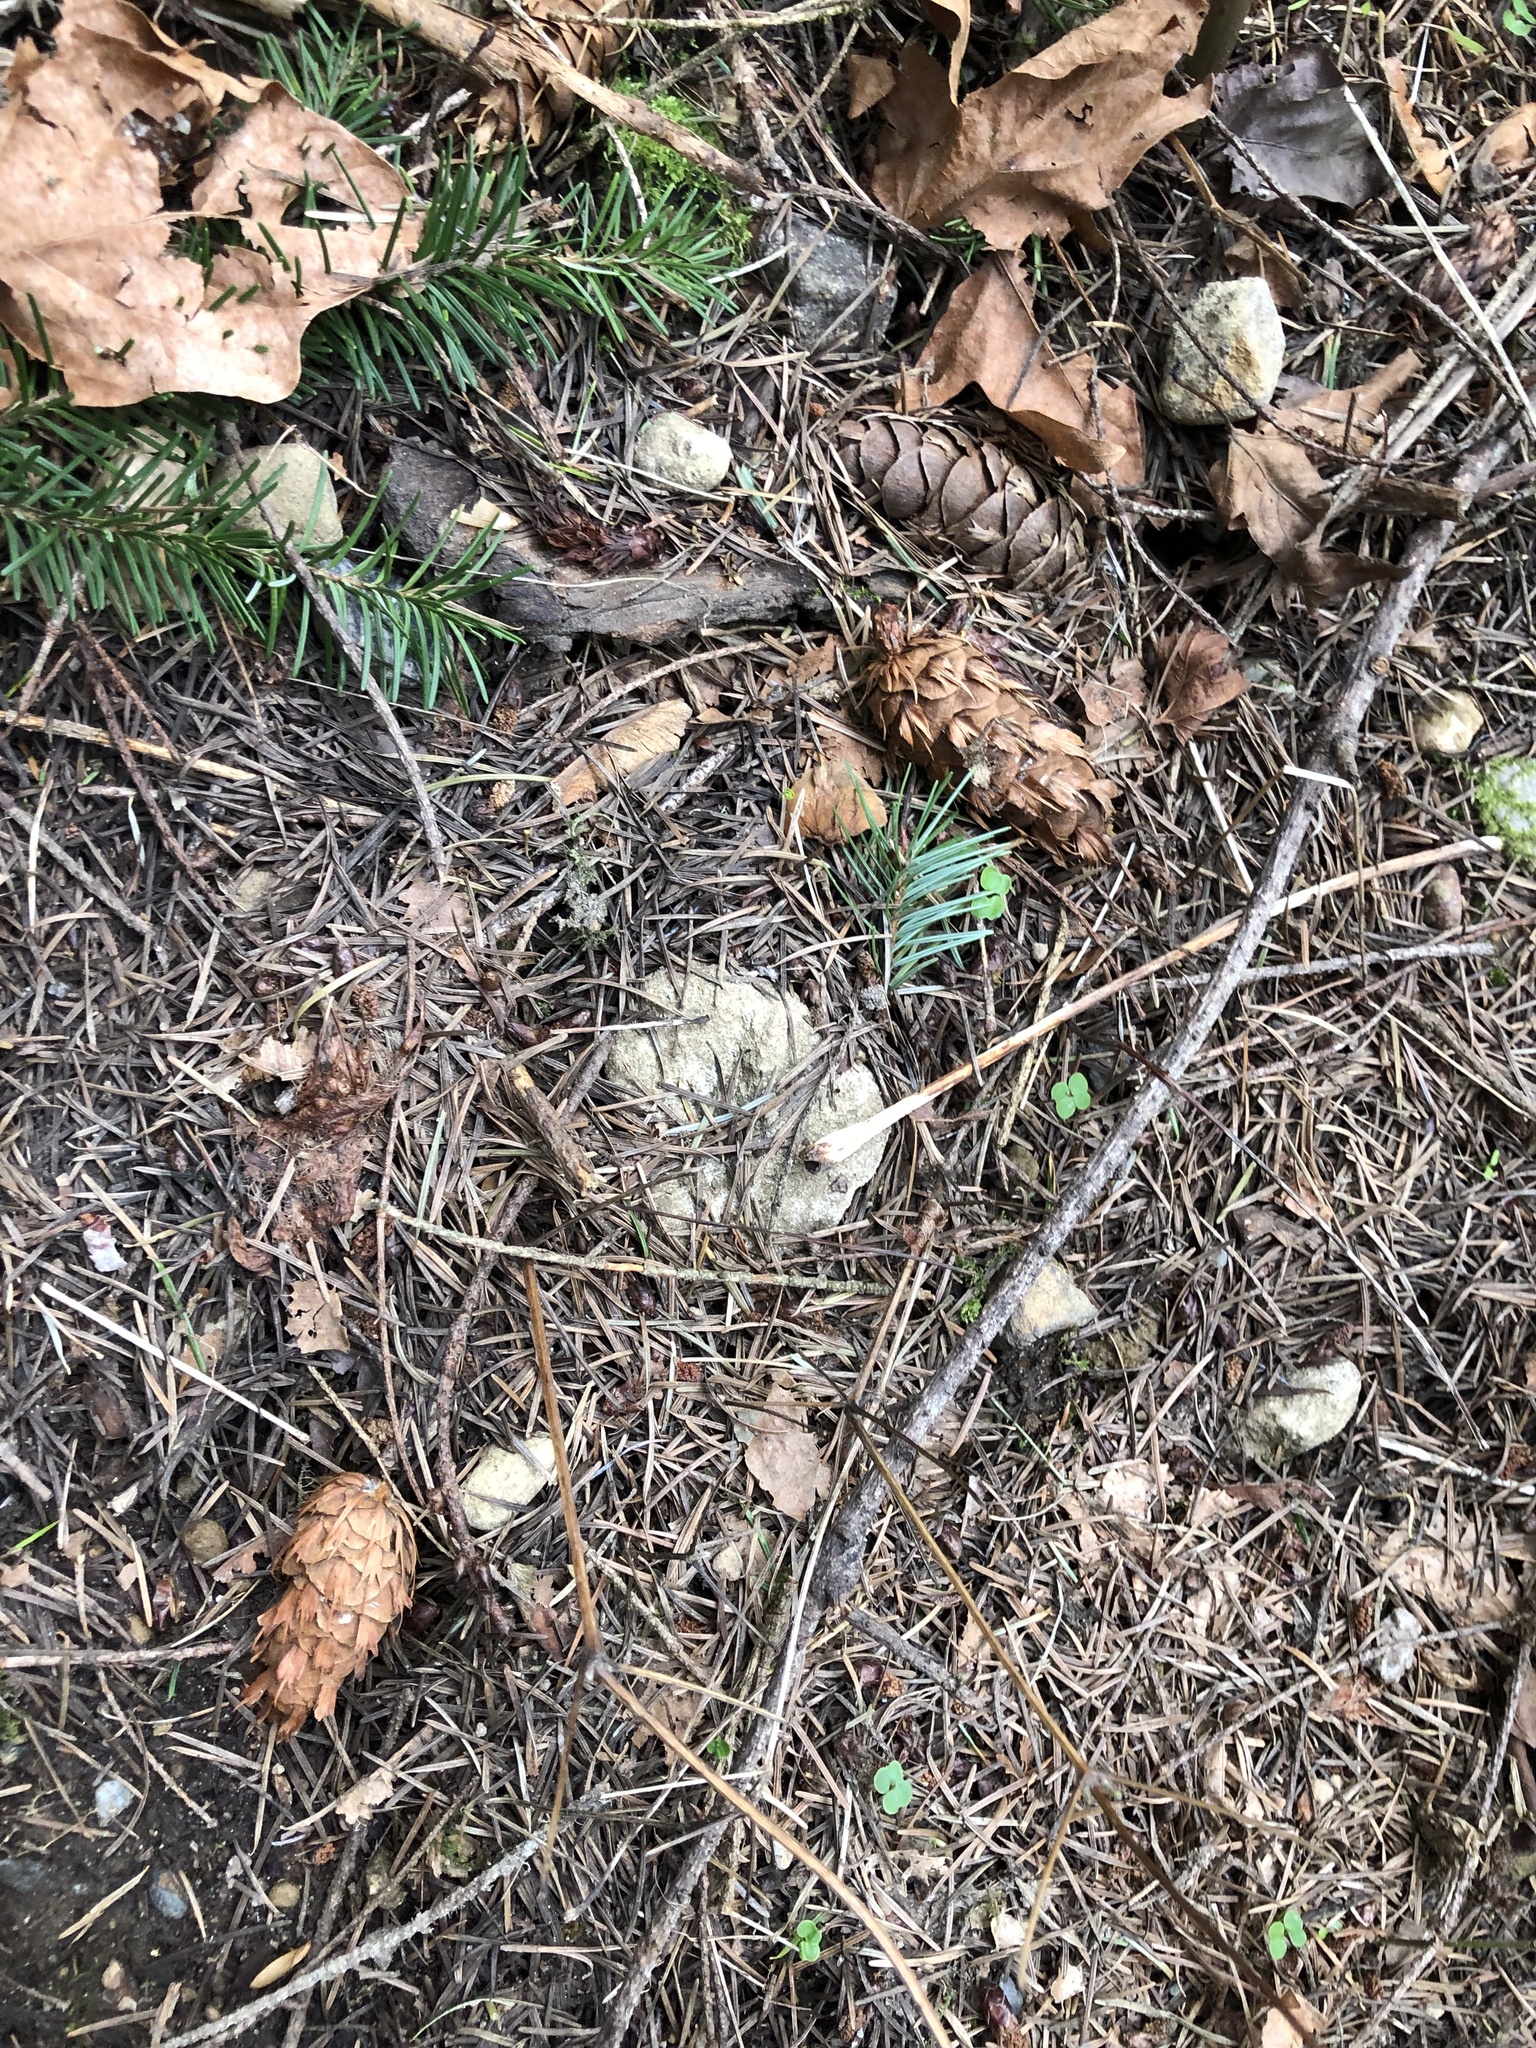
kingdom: Plantae
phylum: Tracheophyta
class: Pinopsida
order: Pinales
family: Pinaceae
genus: Pseudotsuga
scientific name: Pseudotsuga menziesii
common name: Douglas fir
